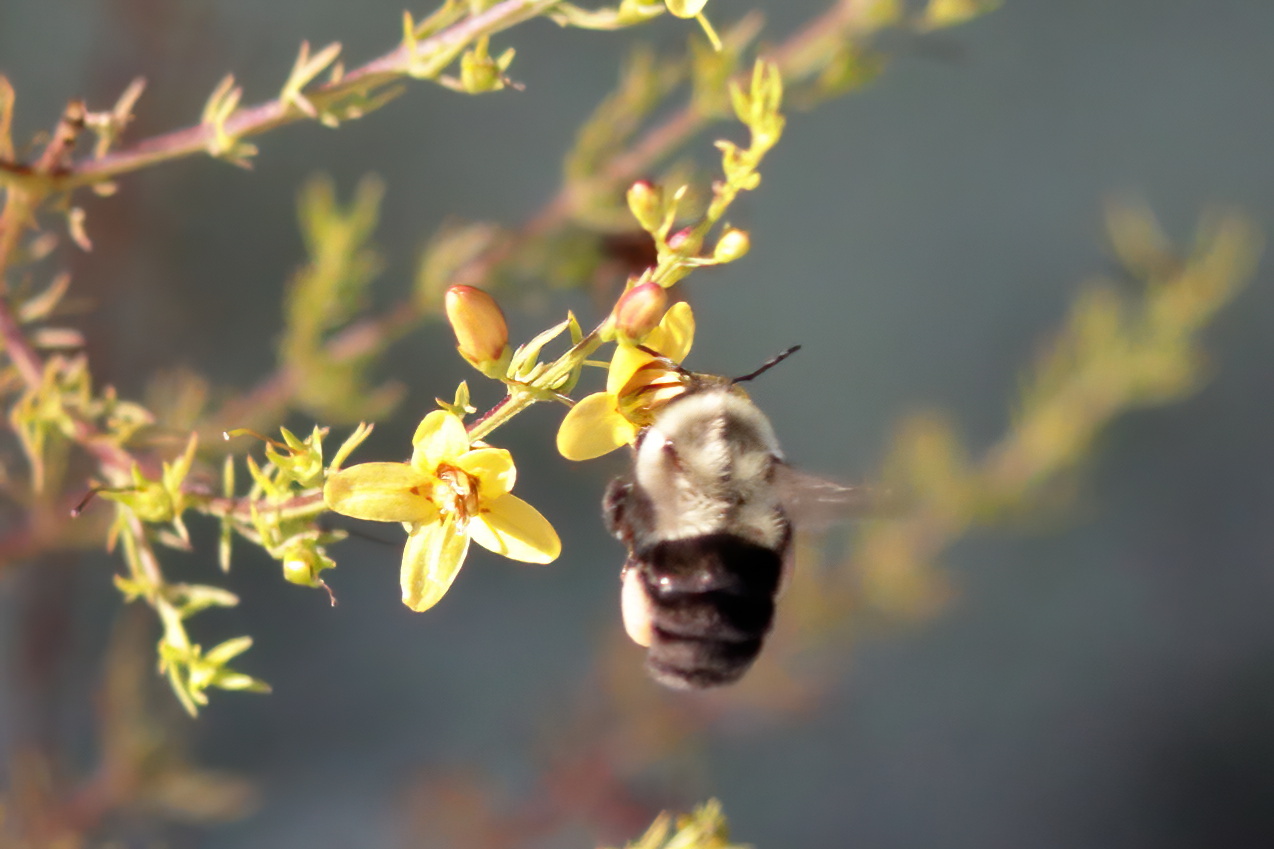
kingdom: Plantae
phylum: Tracheophyta
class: Magnoliopsida
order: Lamiales
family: Orobanchaceae
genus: Seymeria
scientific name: Seymeria cassioides
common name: Yaupon black-senna
